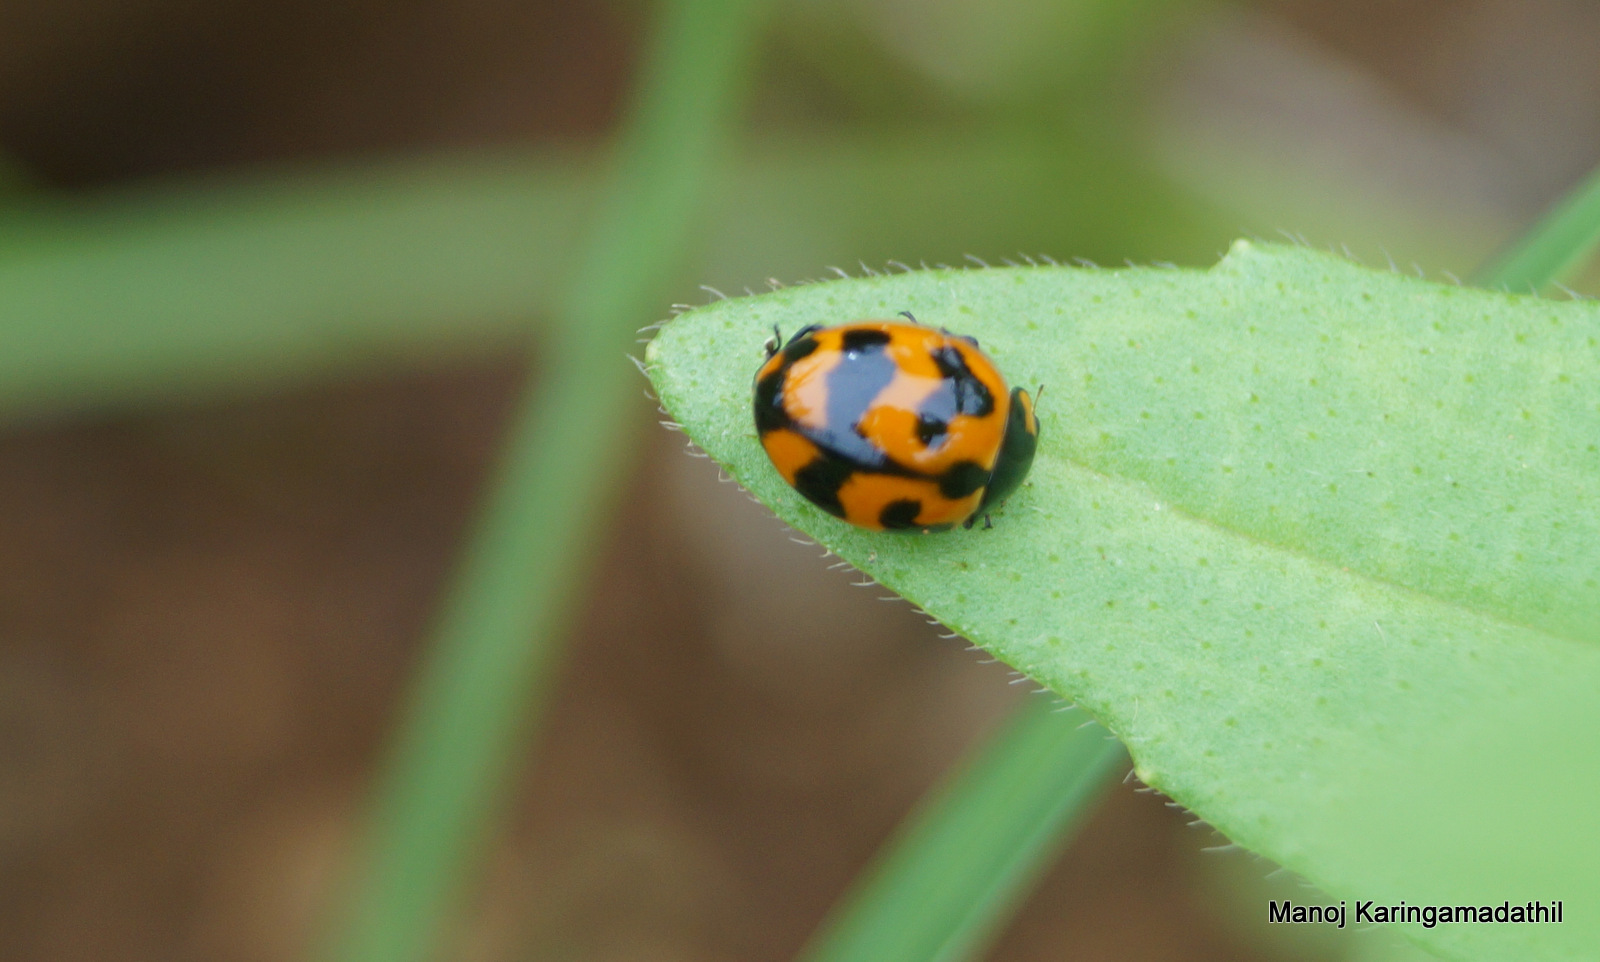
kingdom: Animalia
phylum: Arthropoda
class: Insecta
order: Coleoptera
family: Coccinellidae
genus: Coccinella
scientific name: Coccinella transversalis
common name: Transverse lady beetle
